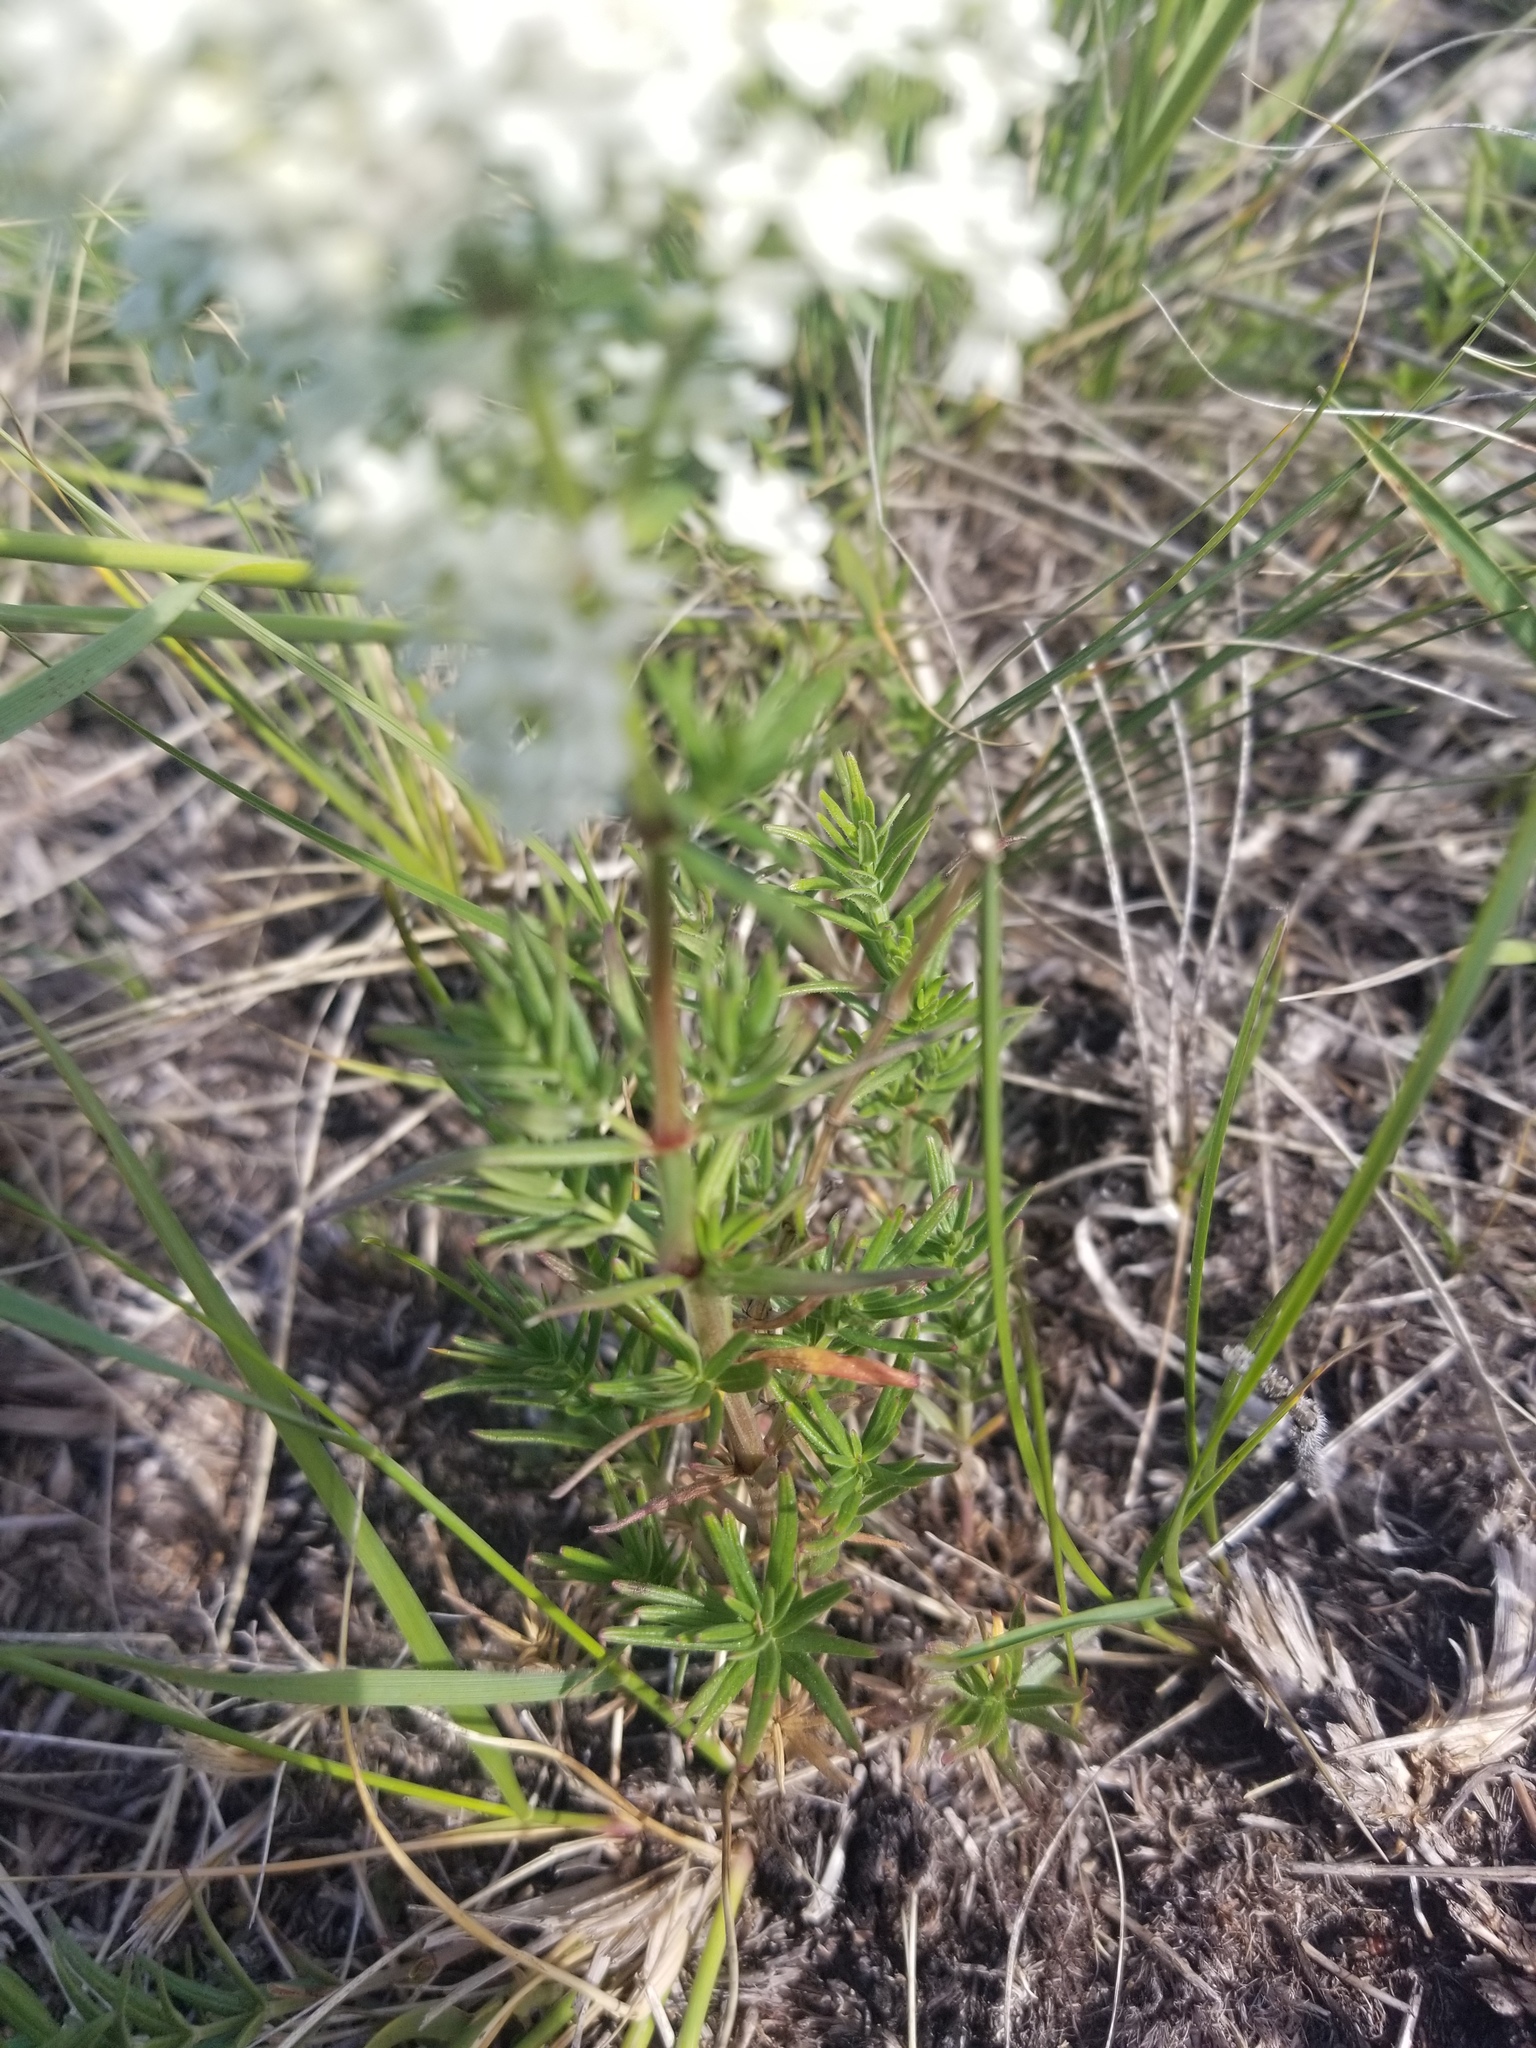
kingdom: Plantae
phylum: Tracheophyta
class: Magnoliopsida
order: Gentianales
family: Rubiaceae
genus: Galium
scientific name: Galium boreale
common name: Northern bedstraw
